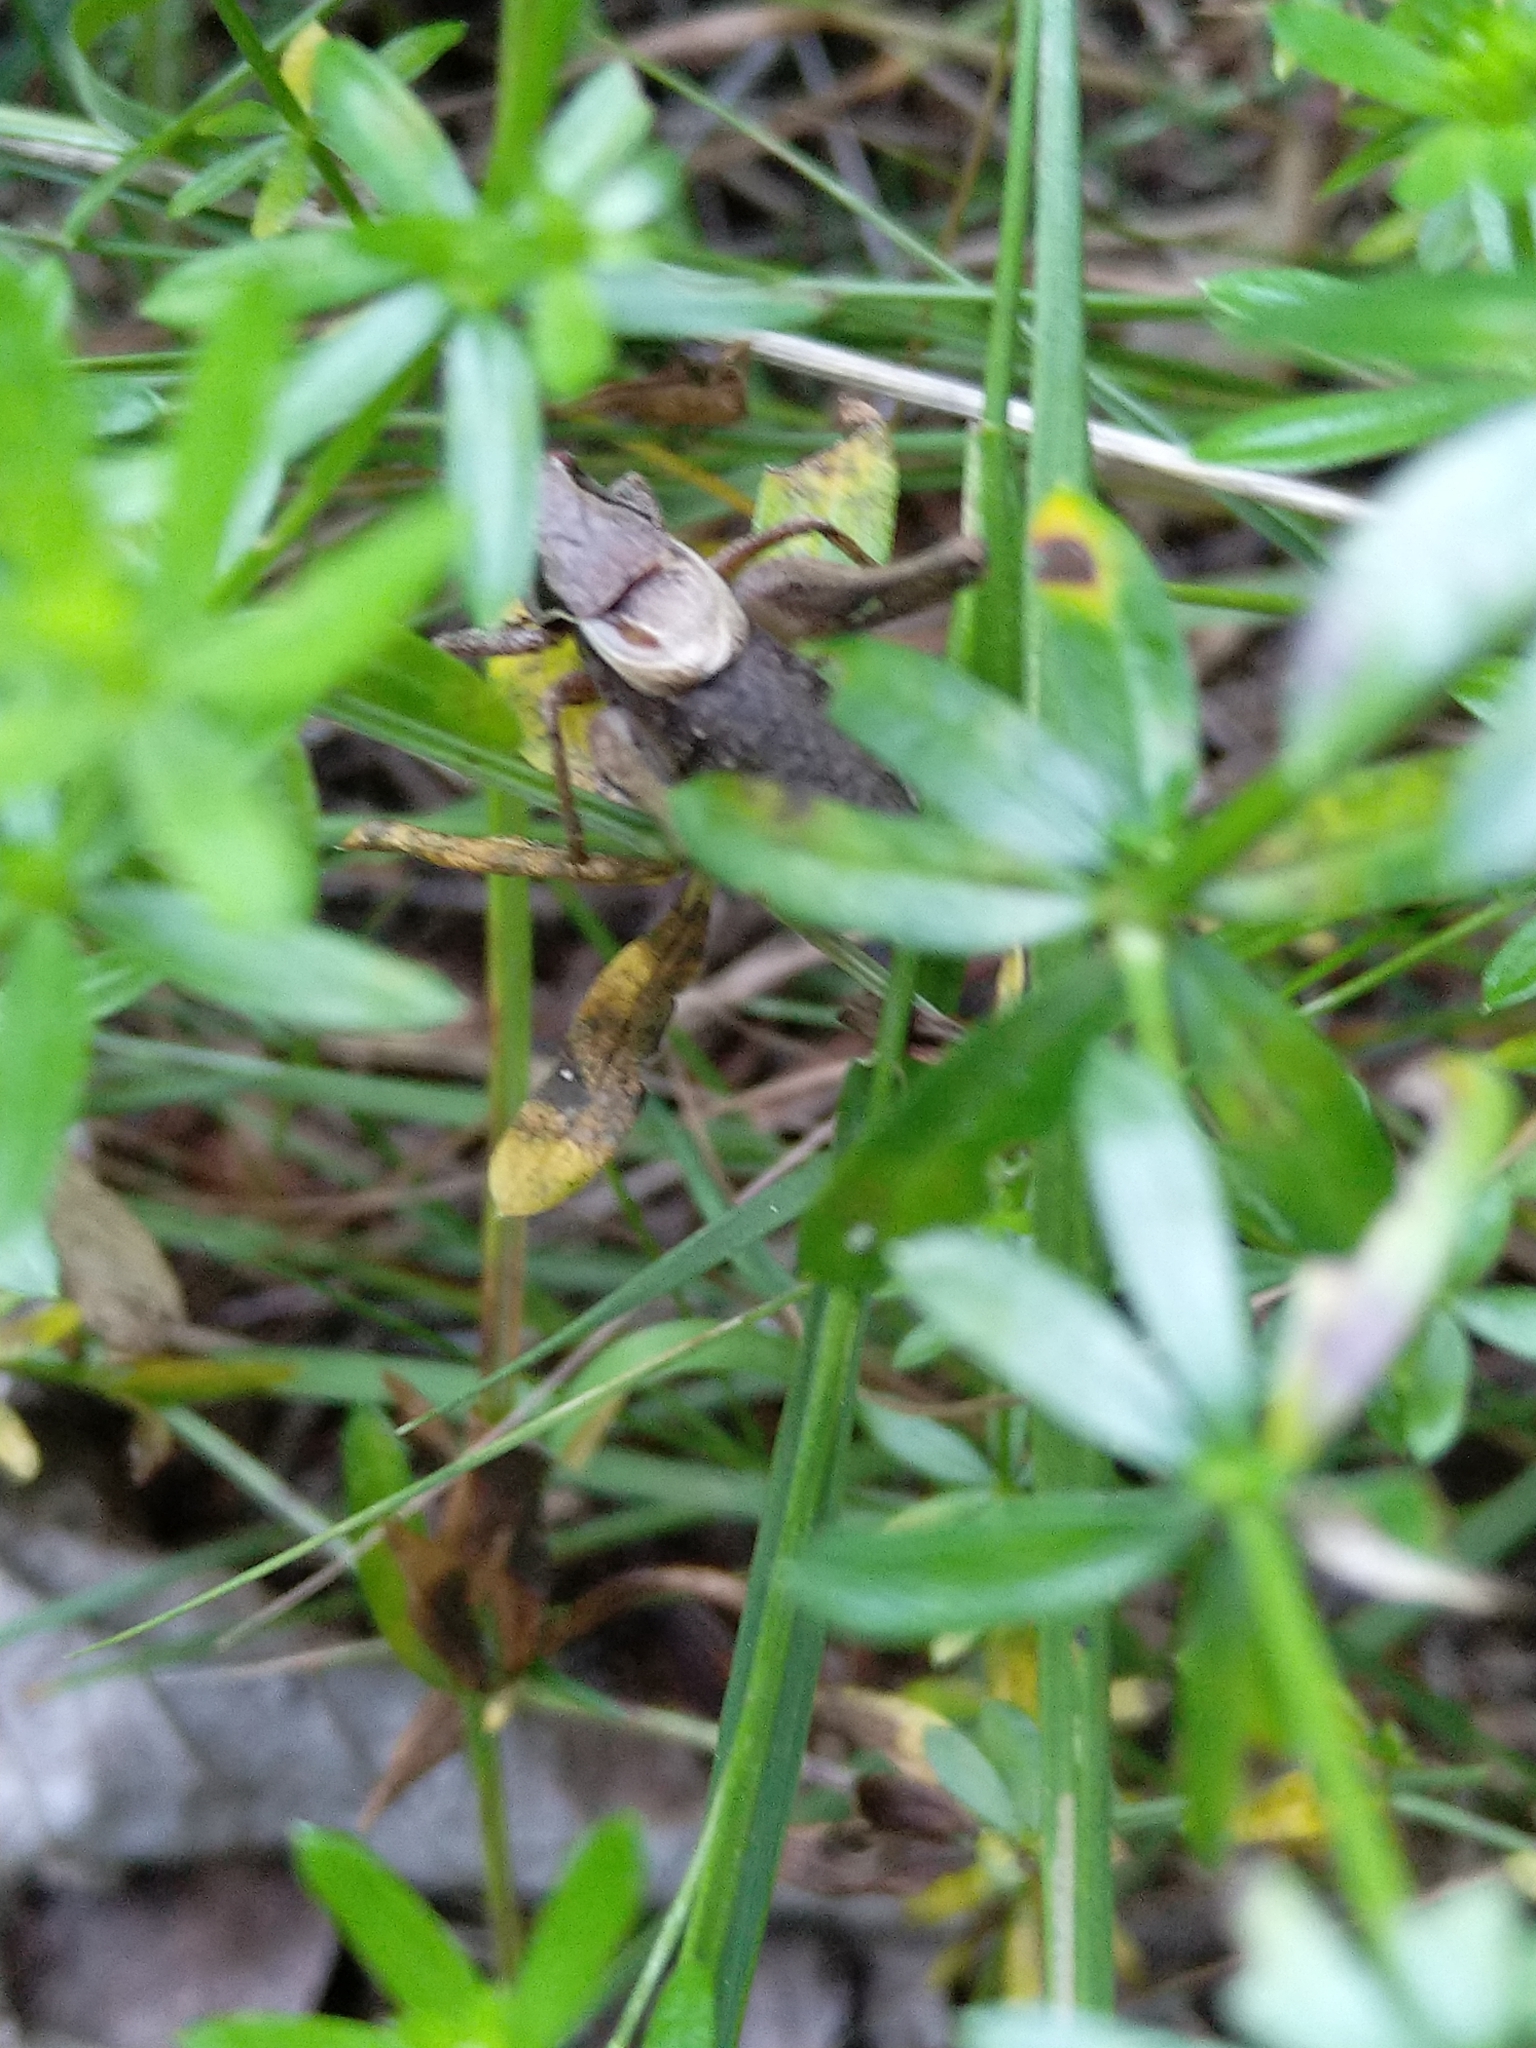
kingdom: Animalia
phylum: Arthropoda
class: Insecta
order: Orthoptera
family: Tettigoniidae
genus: Pholidoptera
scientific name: Pholidoptera griseoaptera
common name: Dark bush-cricket
